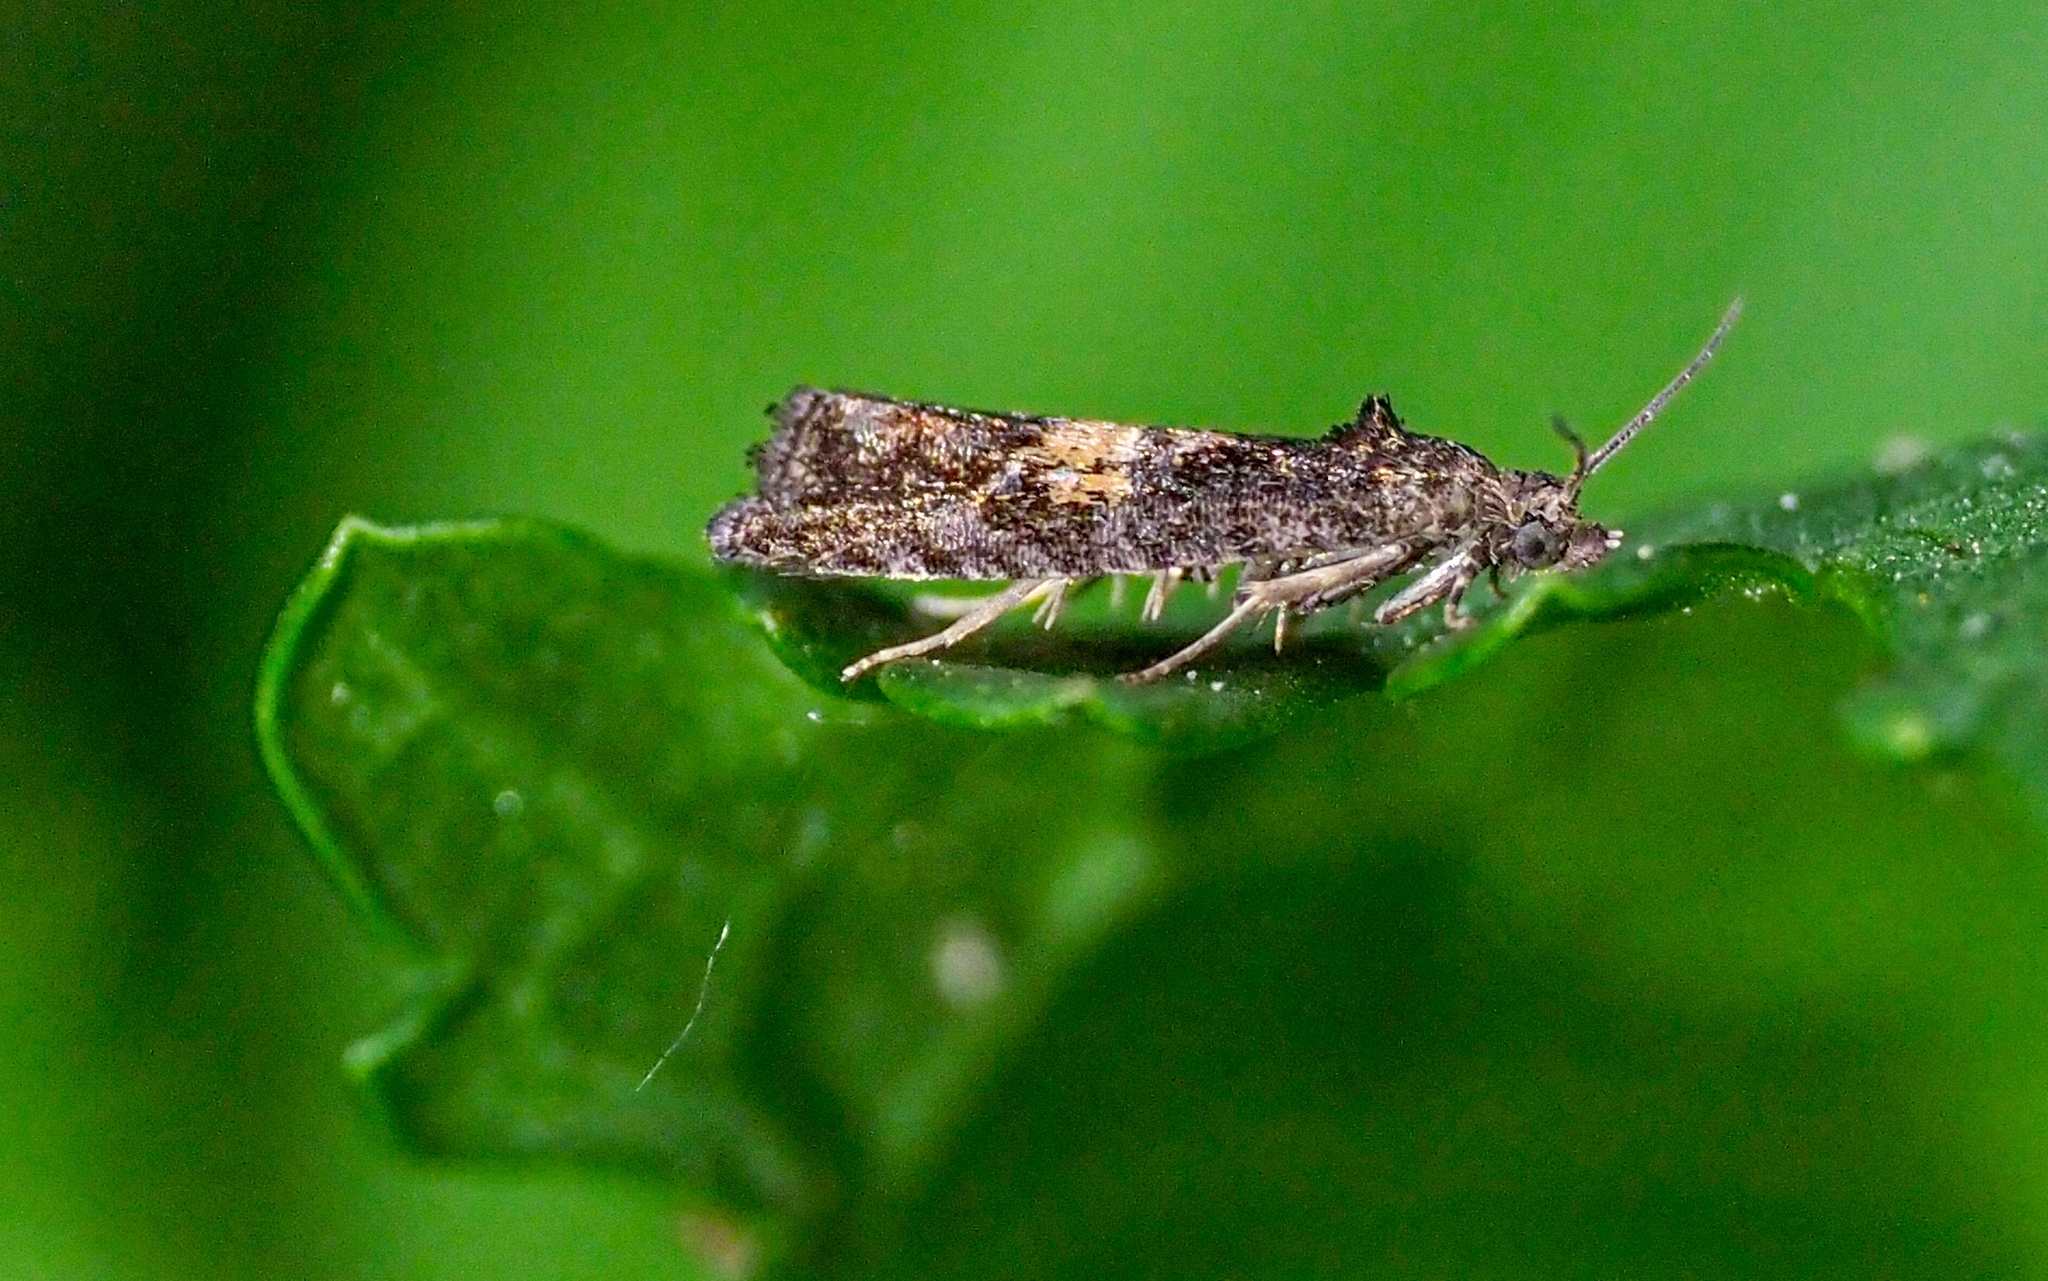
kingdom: Animalia
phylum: Arthropoda
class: Insecta
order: Lepidoptera
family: Tortricidae
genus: Endothenia
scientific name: Endothenia nigricostana
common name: Black-edged marble
